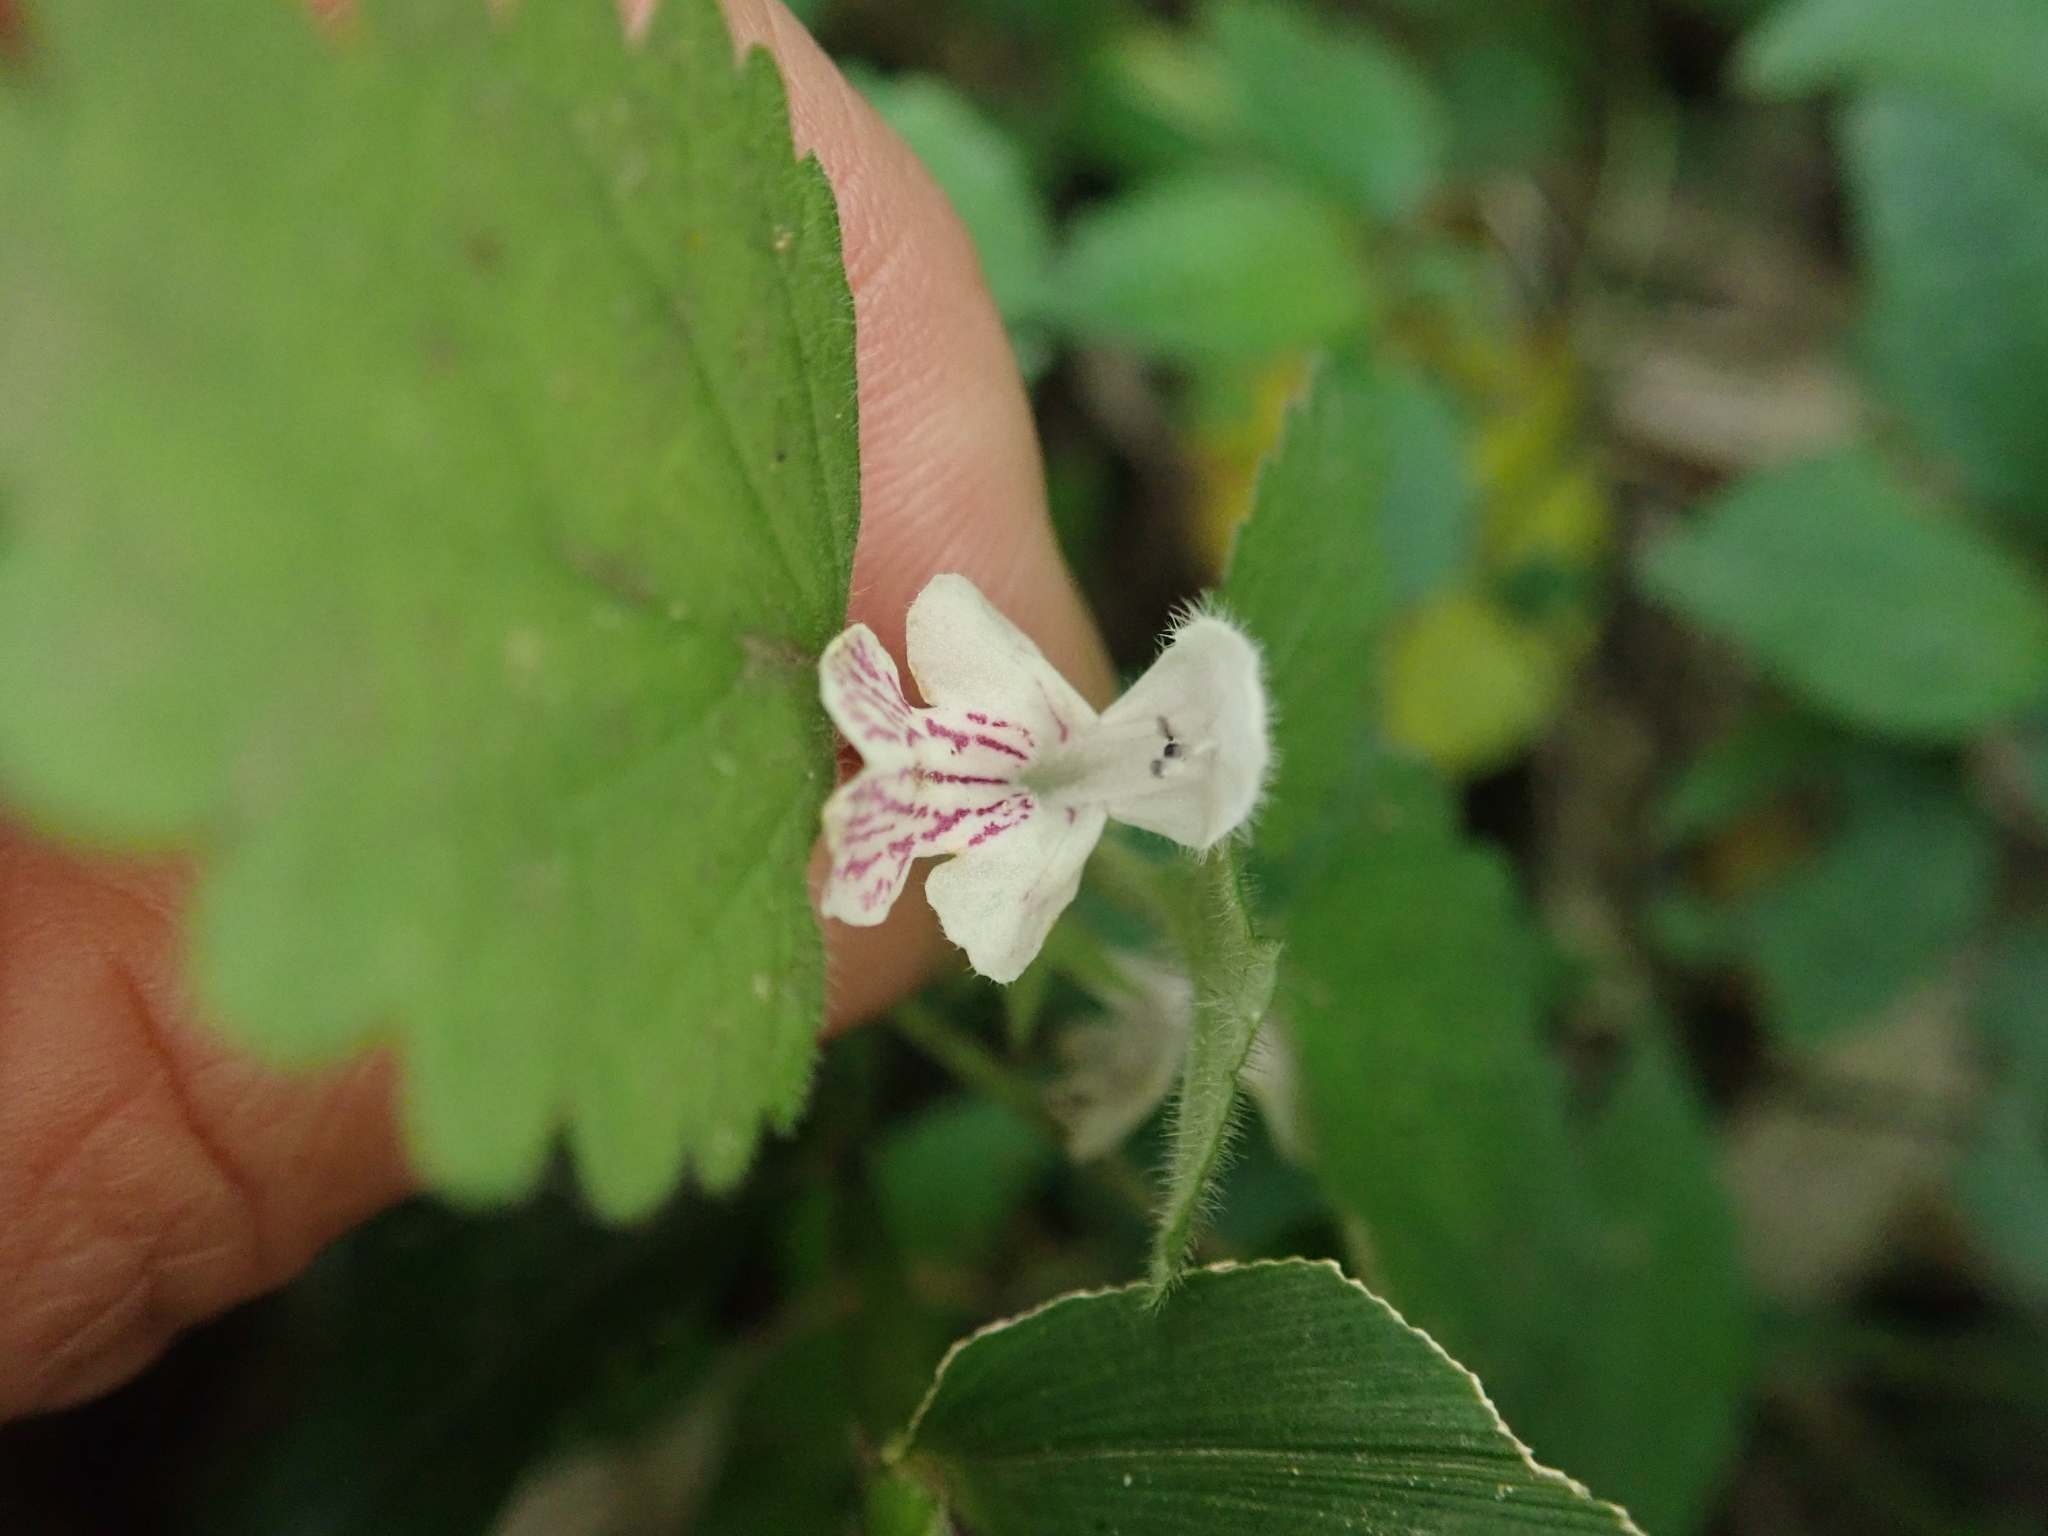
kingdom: Plantae
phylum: Tracheophyta
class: Magnoliopsida
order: Lamiales
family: Lamiaceae
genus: Matsumurella
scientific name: Matsumurella tuberifera
